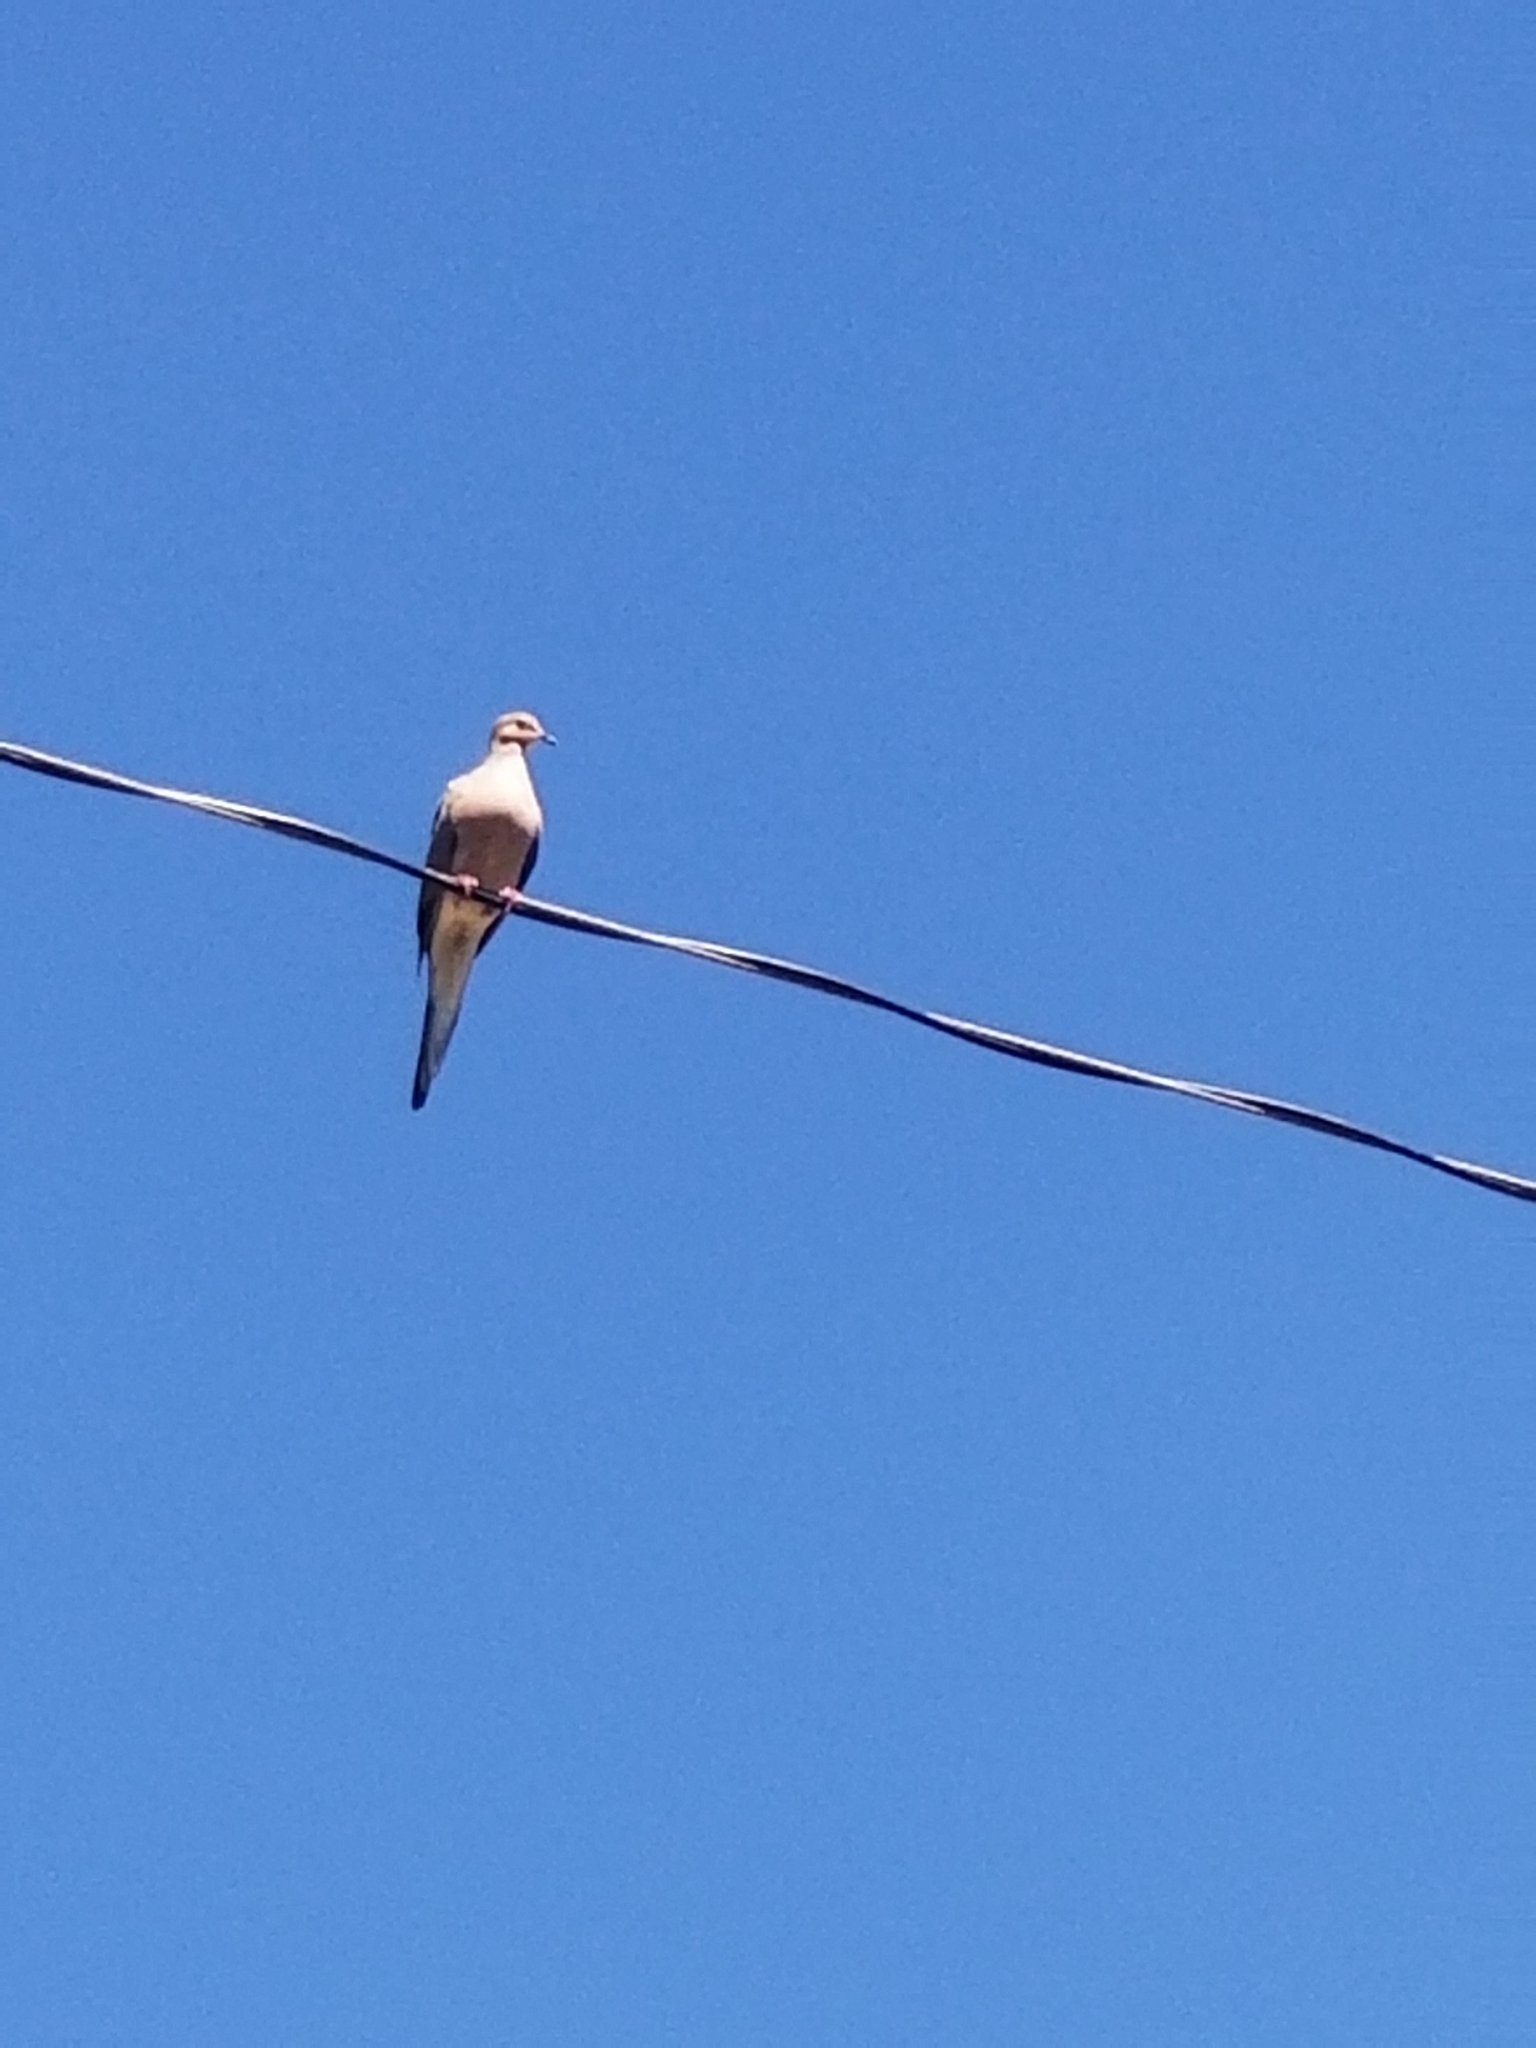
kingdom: Animalia
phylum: Chordata
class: Aves
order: Columbiformes
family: Columbidae
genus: Zenaida
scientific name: Zenaida macroura
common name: Mourning dove
